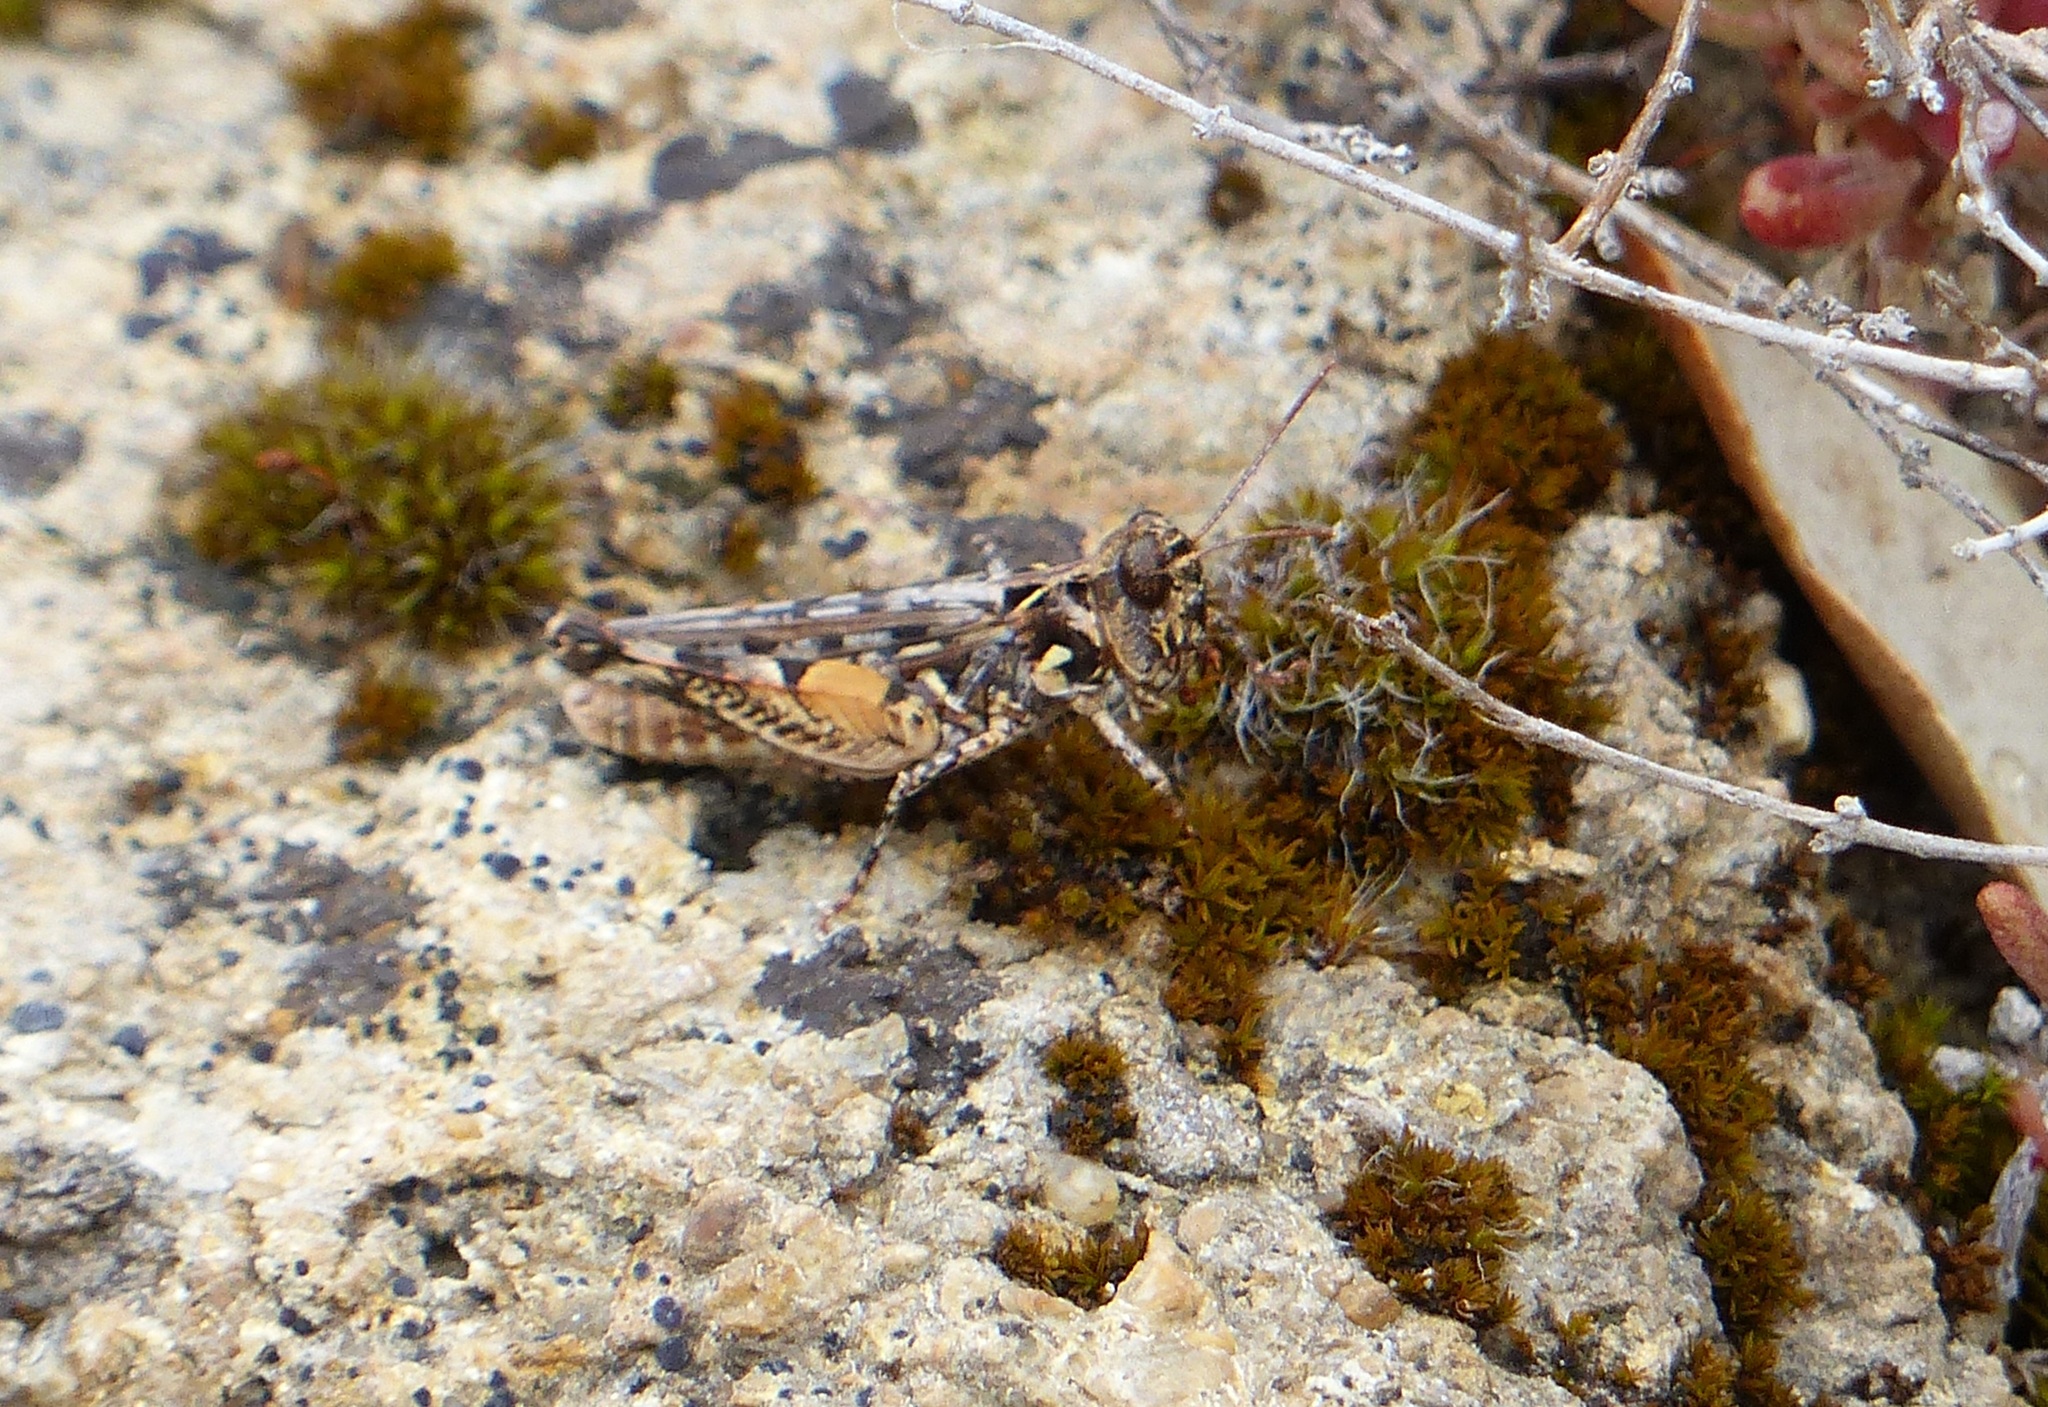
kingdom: Animalia
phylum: Arthropoda
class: Insecta
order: Orthoptera
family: Acrididae
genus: Dociostaurus
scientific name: Dociostaurus genei
